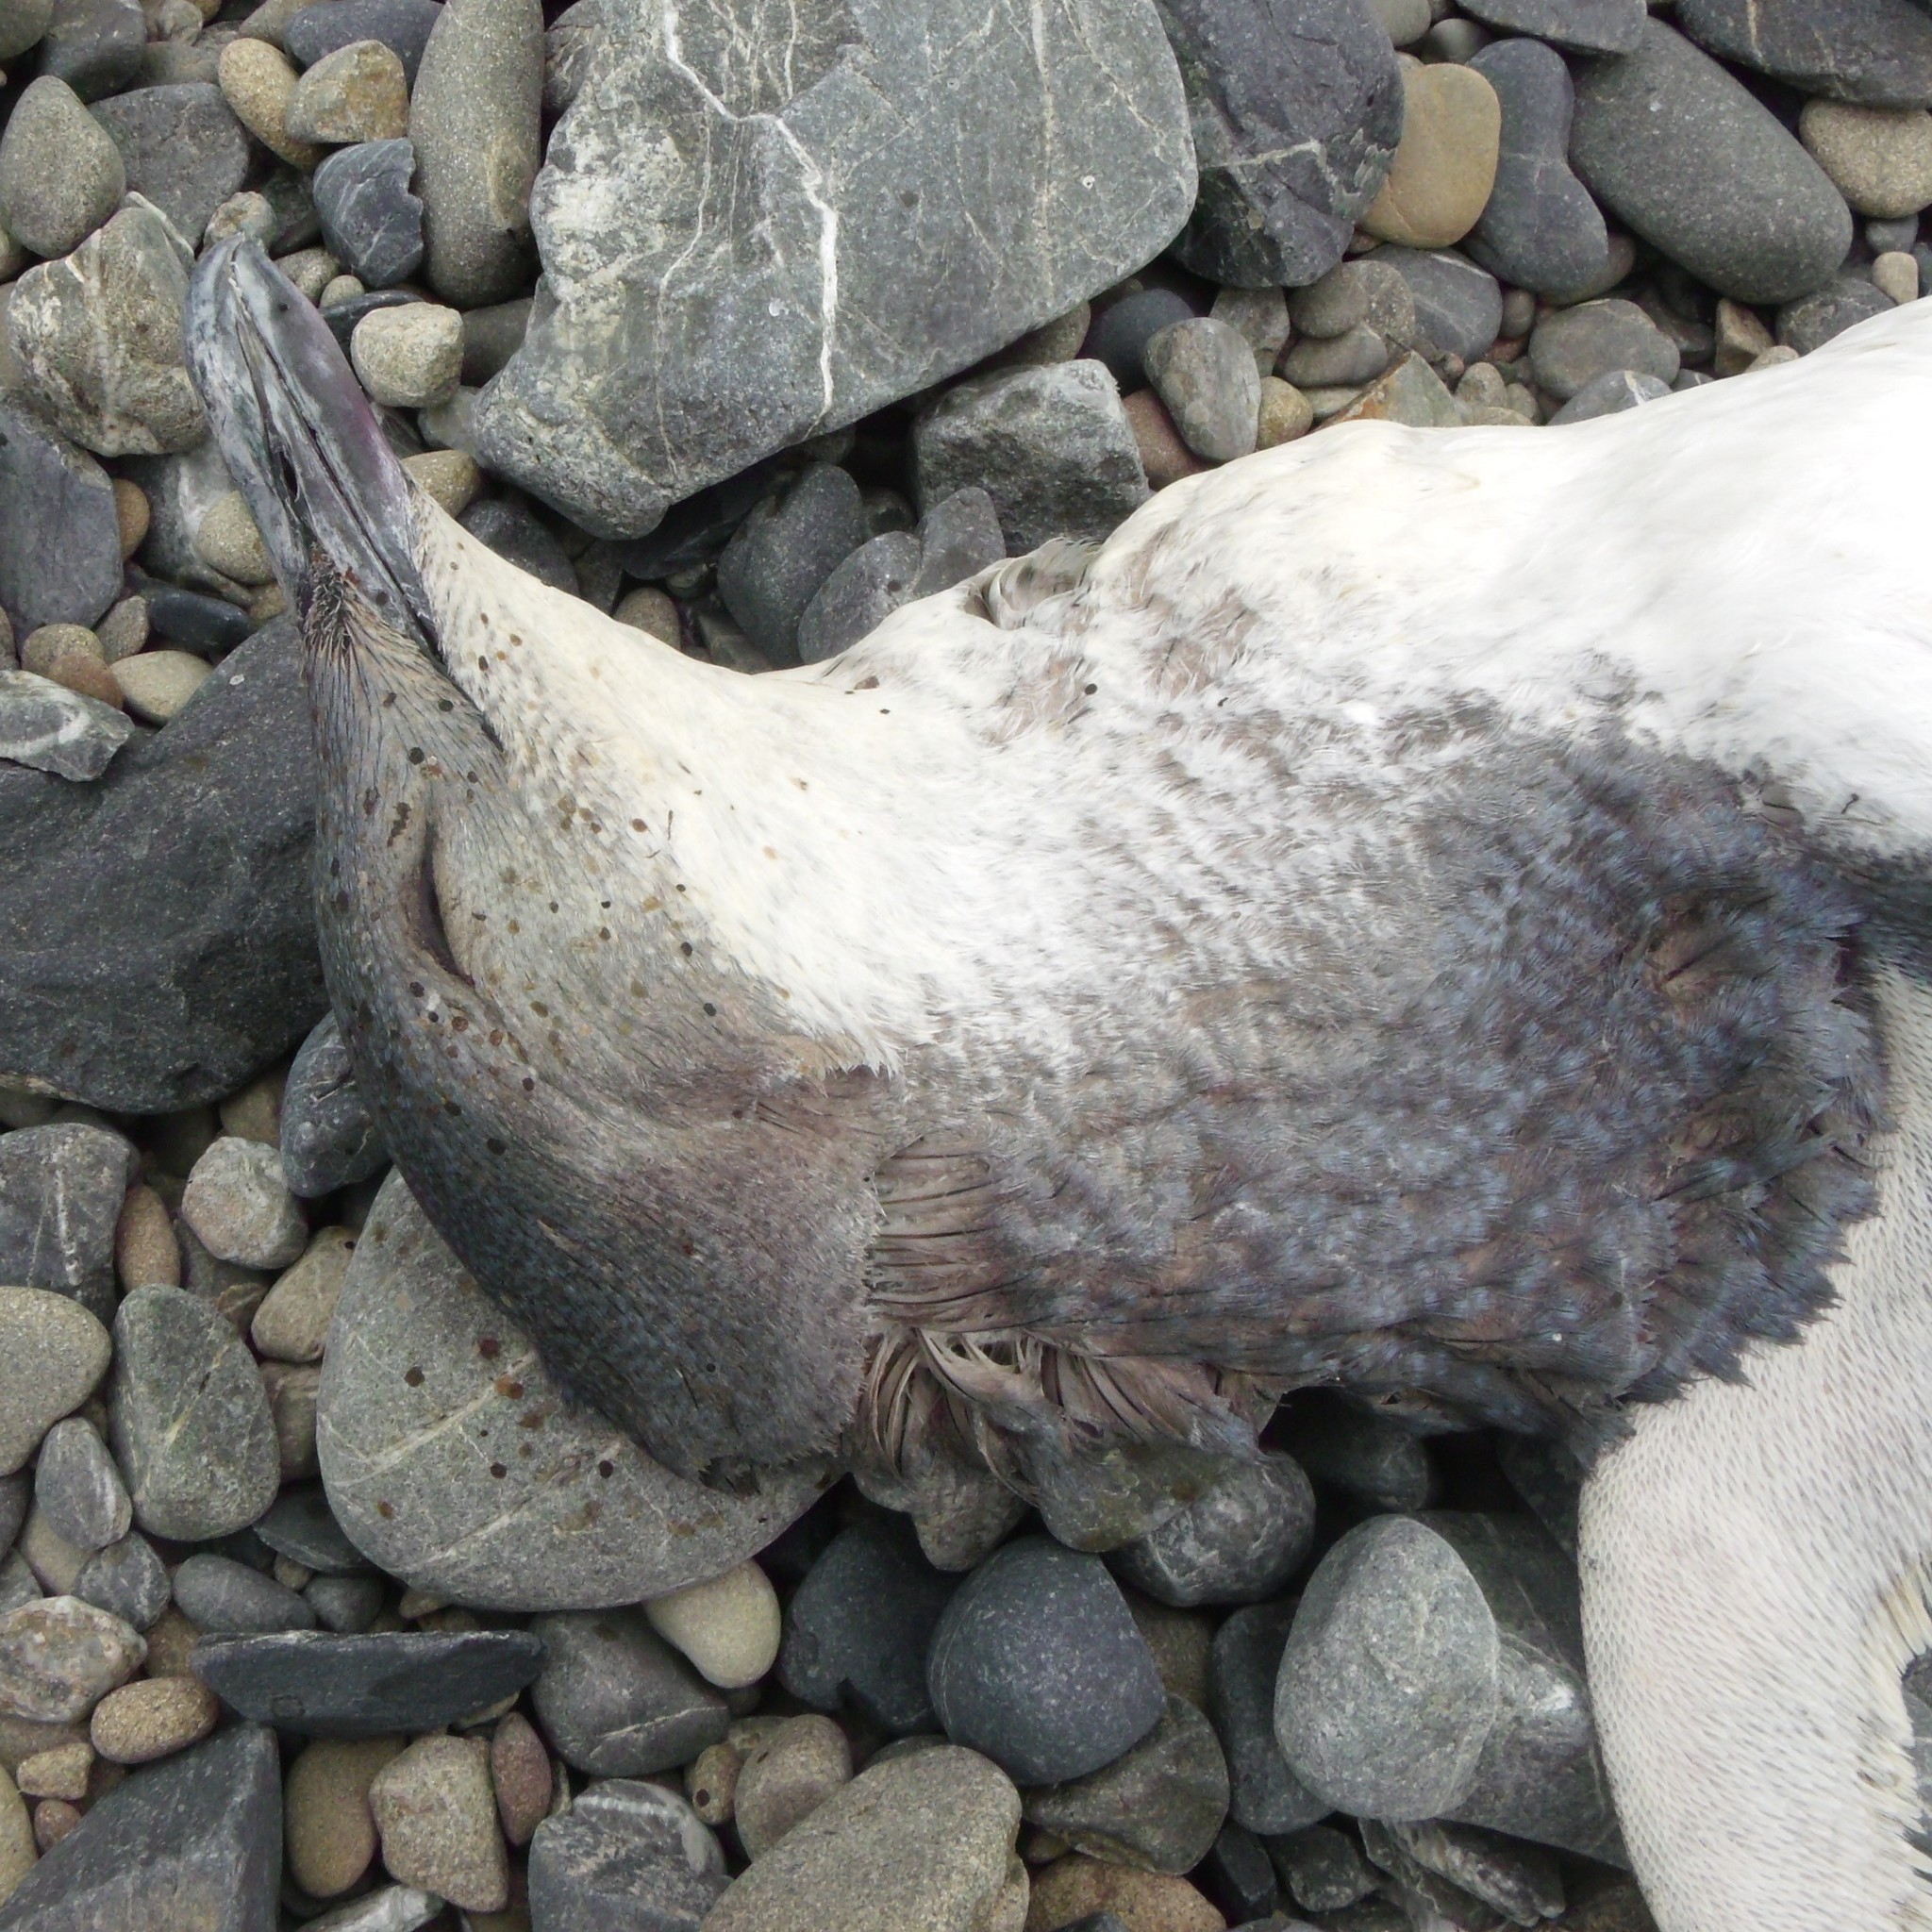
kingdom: Animalia
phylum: Chordata
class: Aves
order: Sphenisciformes
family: Spheniscidae
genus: Eudyptula
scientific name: Eudyptula minor
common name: Little penguin
